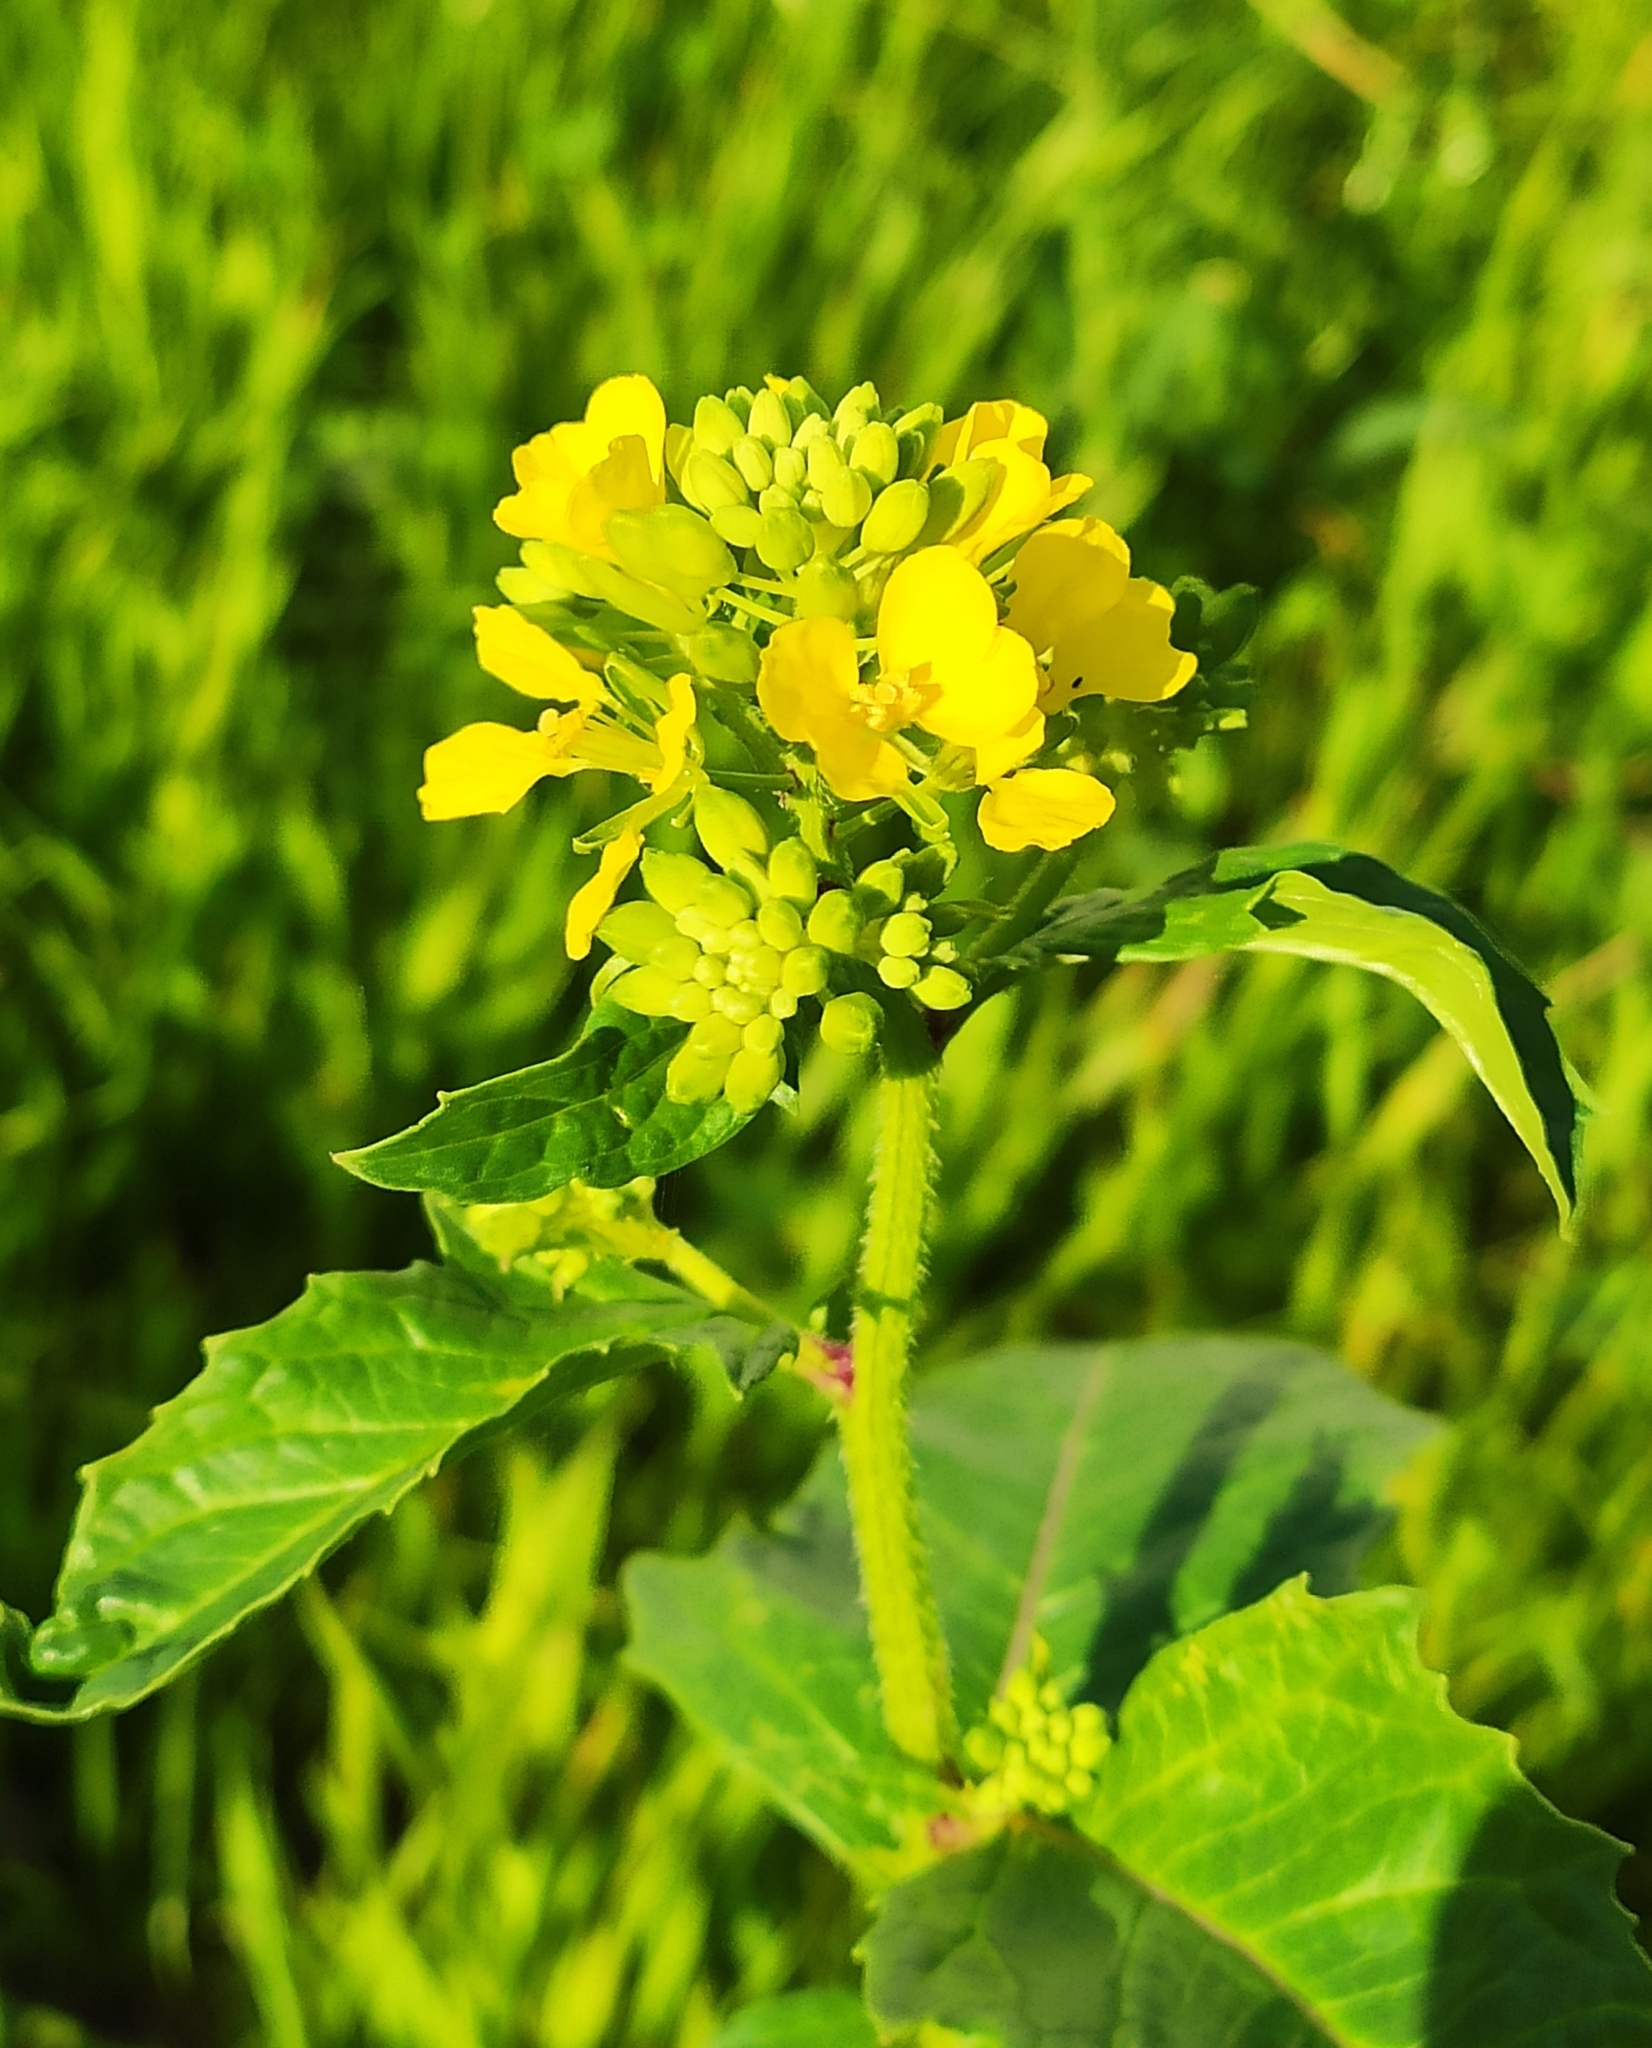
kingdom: Plantae
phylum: Tracheophyta
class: Magnoliopsida
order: Brassicales
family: Brassicaceae
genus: Sinapis
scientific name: Sinapis arvensis
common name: Charlock
